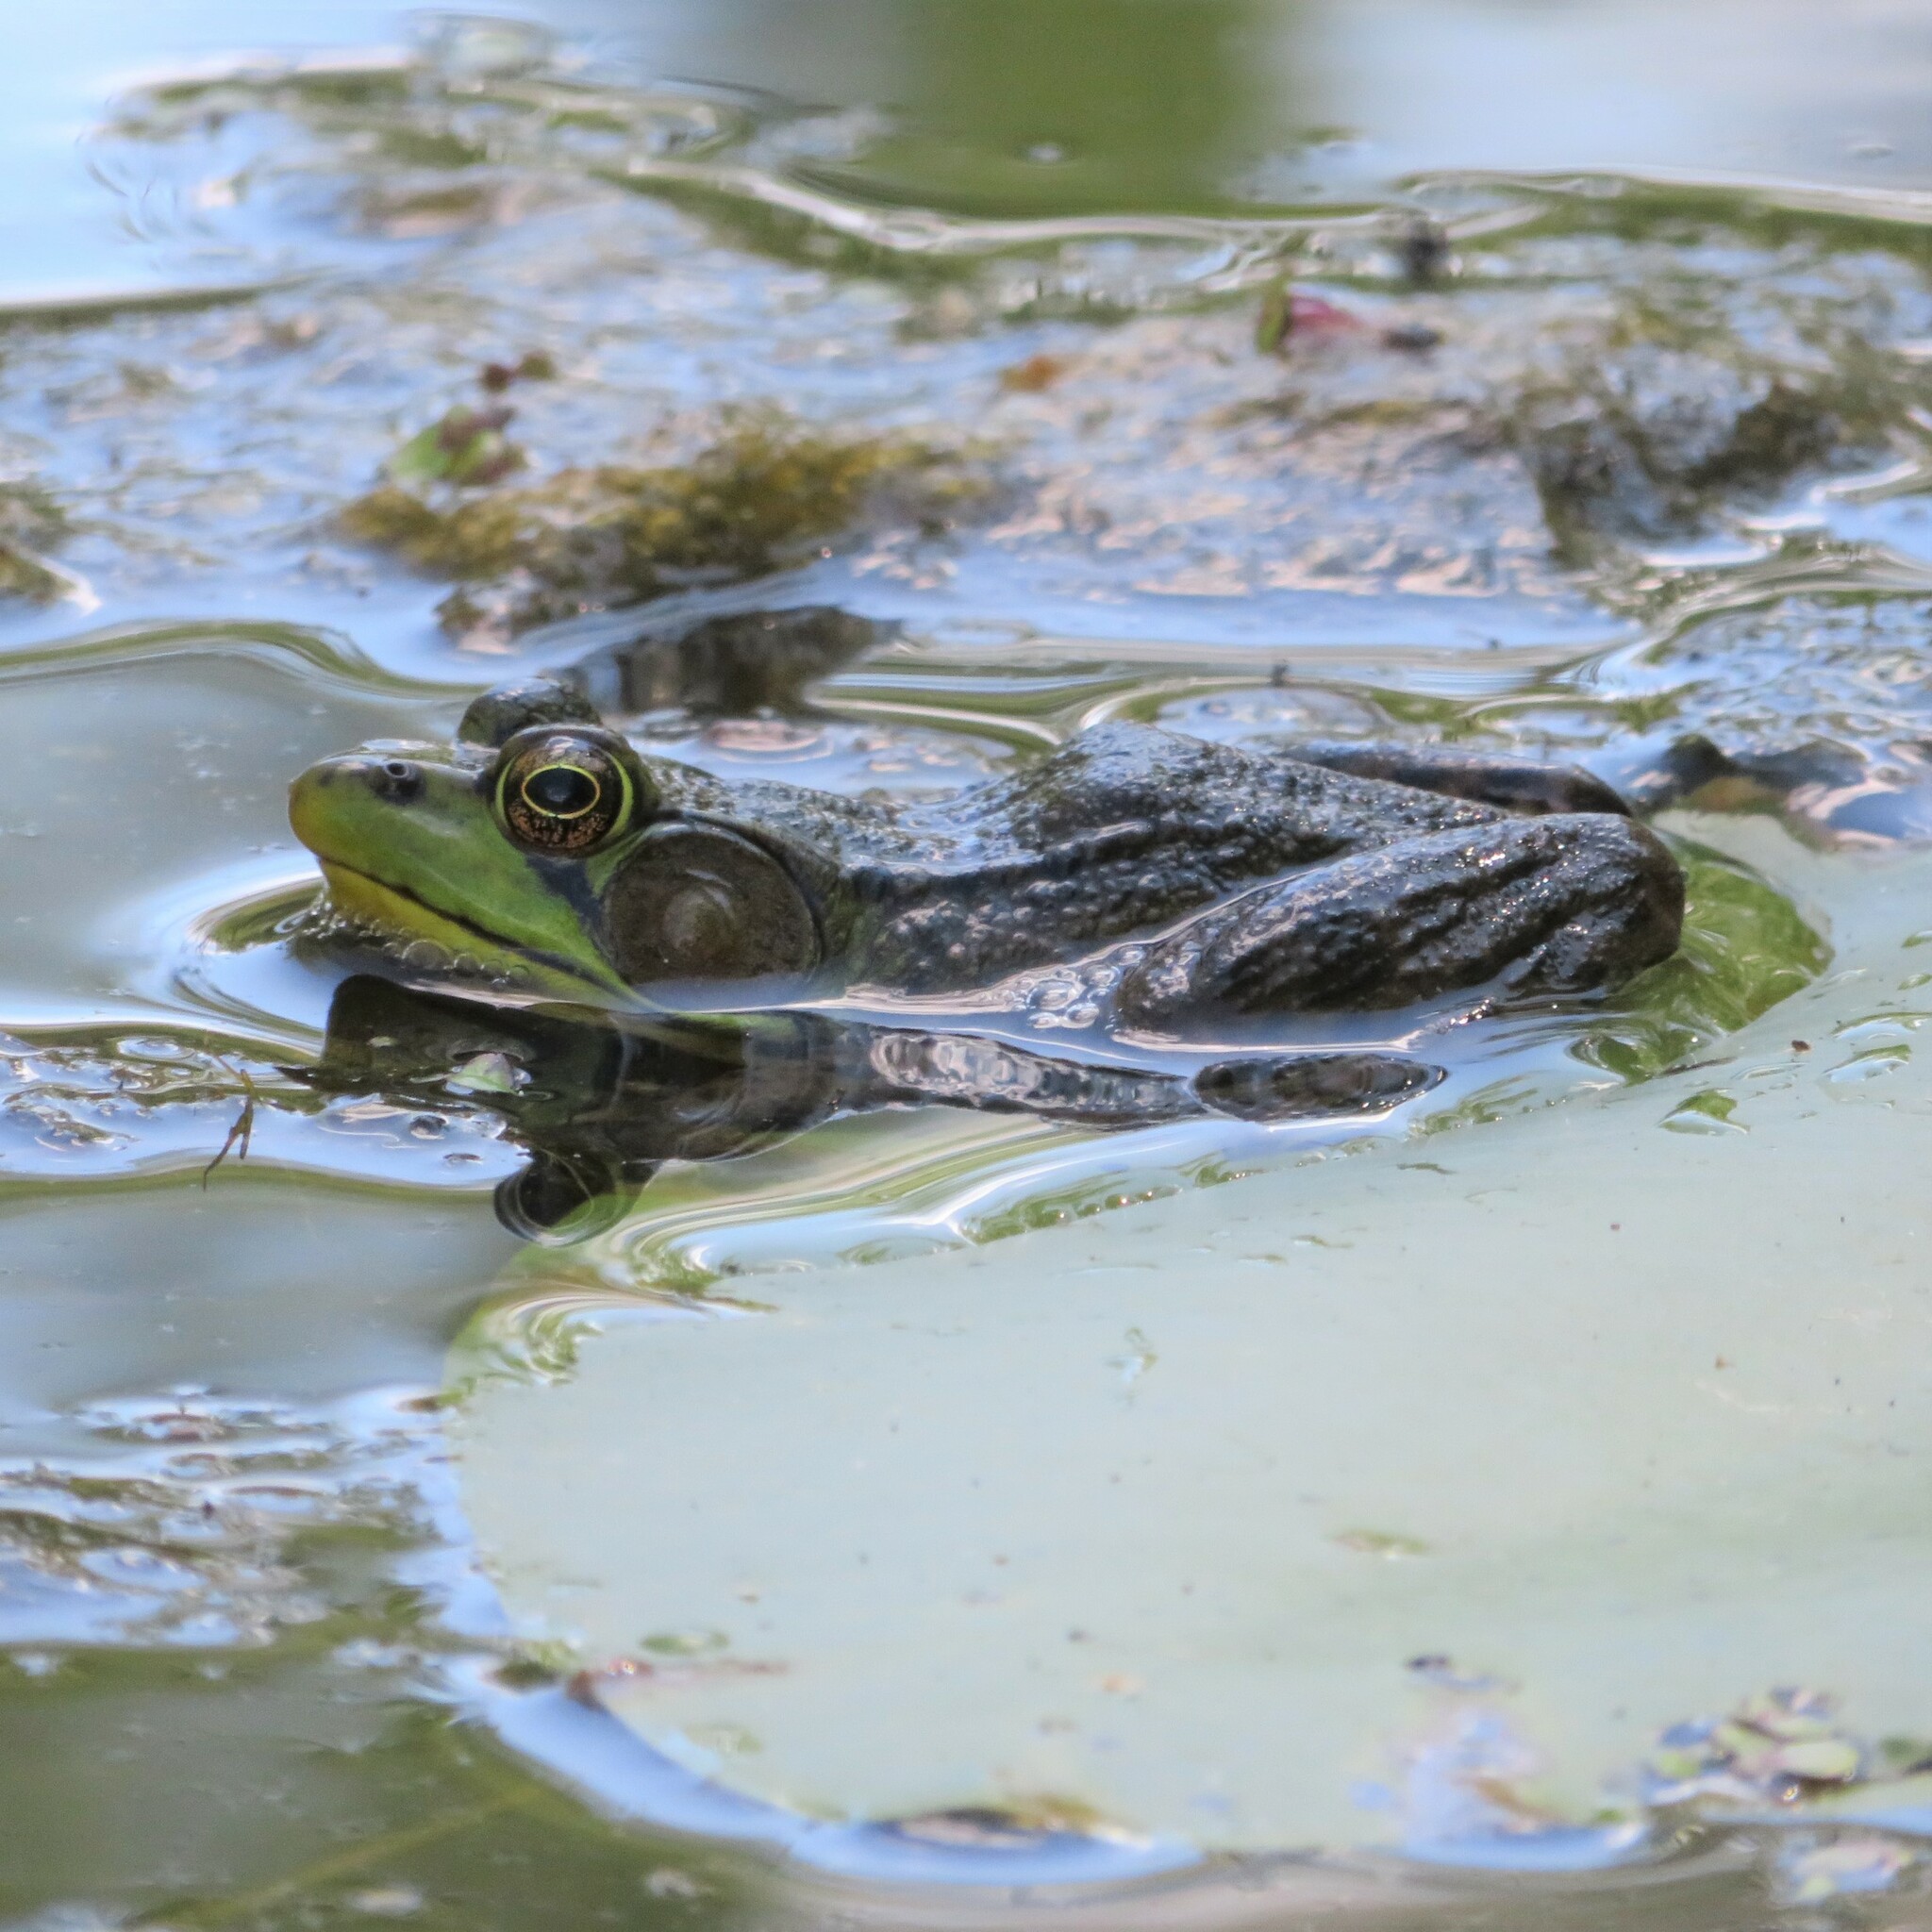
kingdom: Animalia
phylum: Chordata
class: Amphibia
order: Anura
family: Ranidae
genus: Lithobates
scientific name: Lithobates clamitans
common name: Green frog
